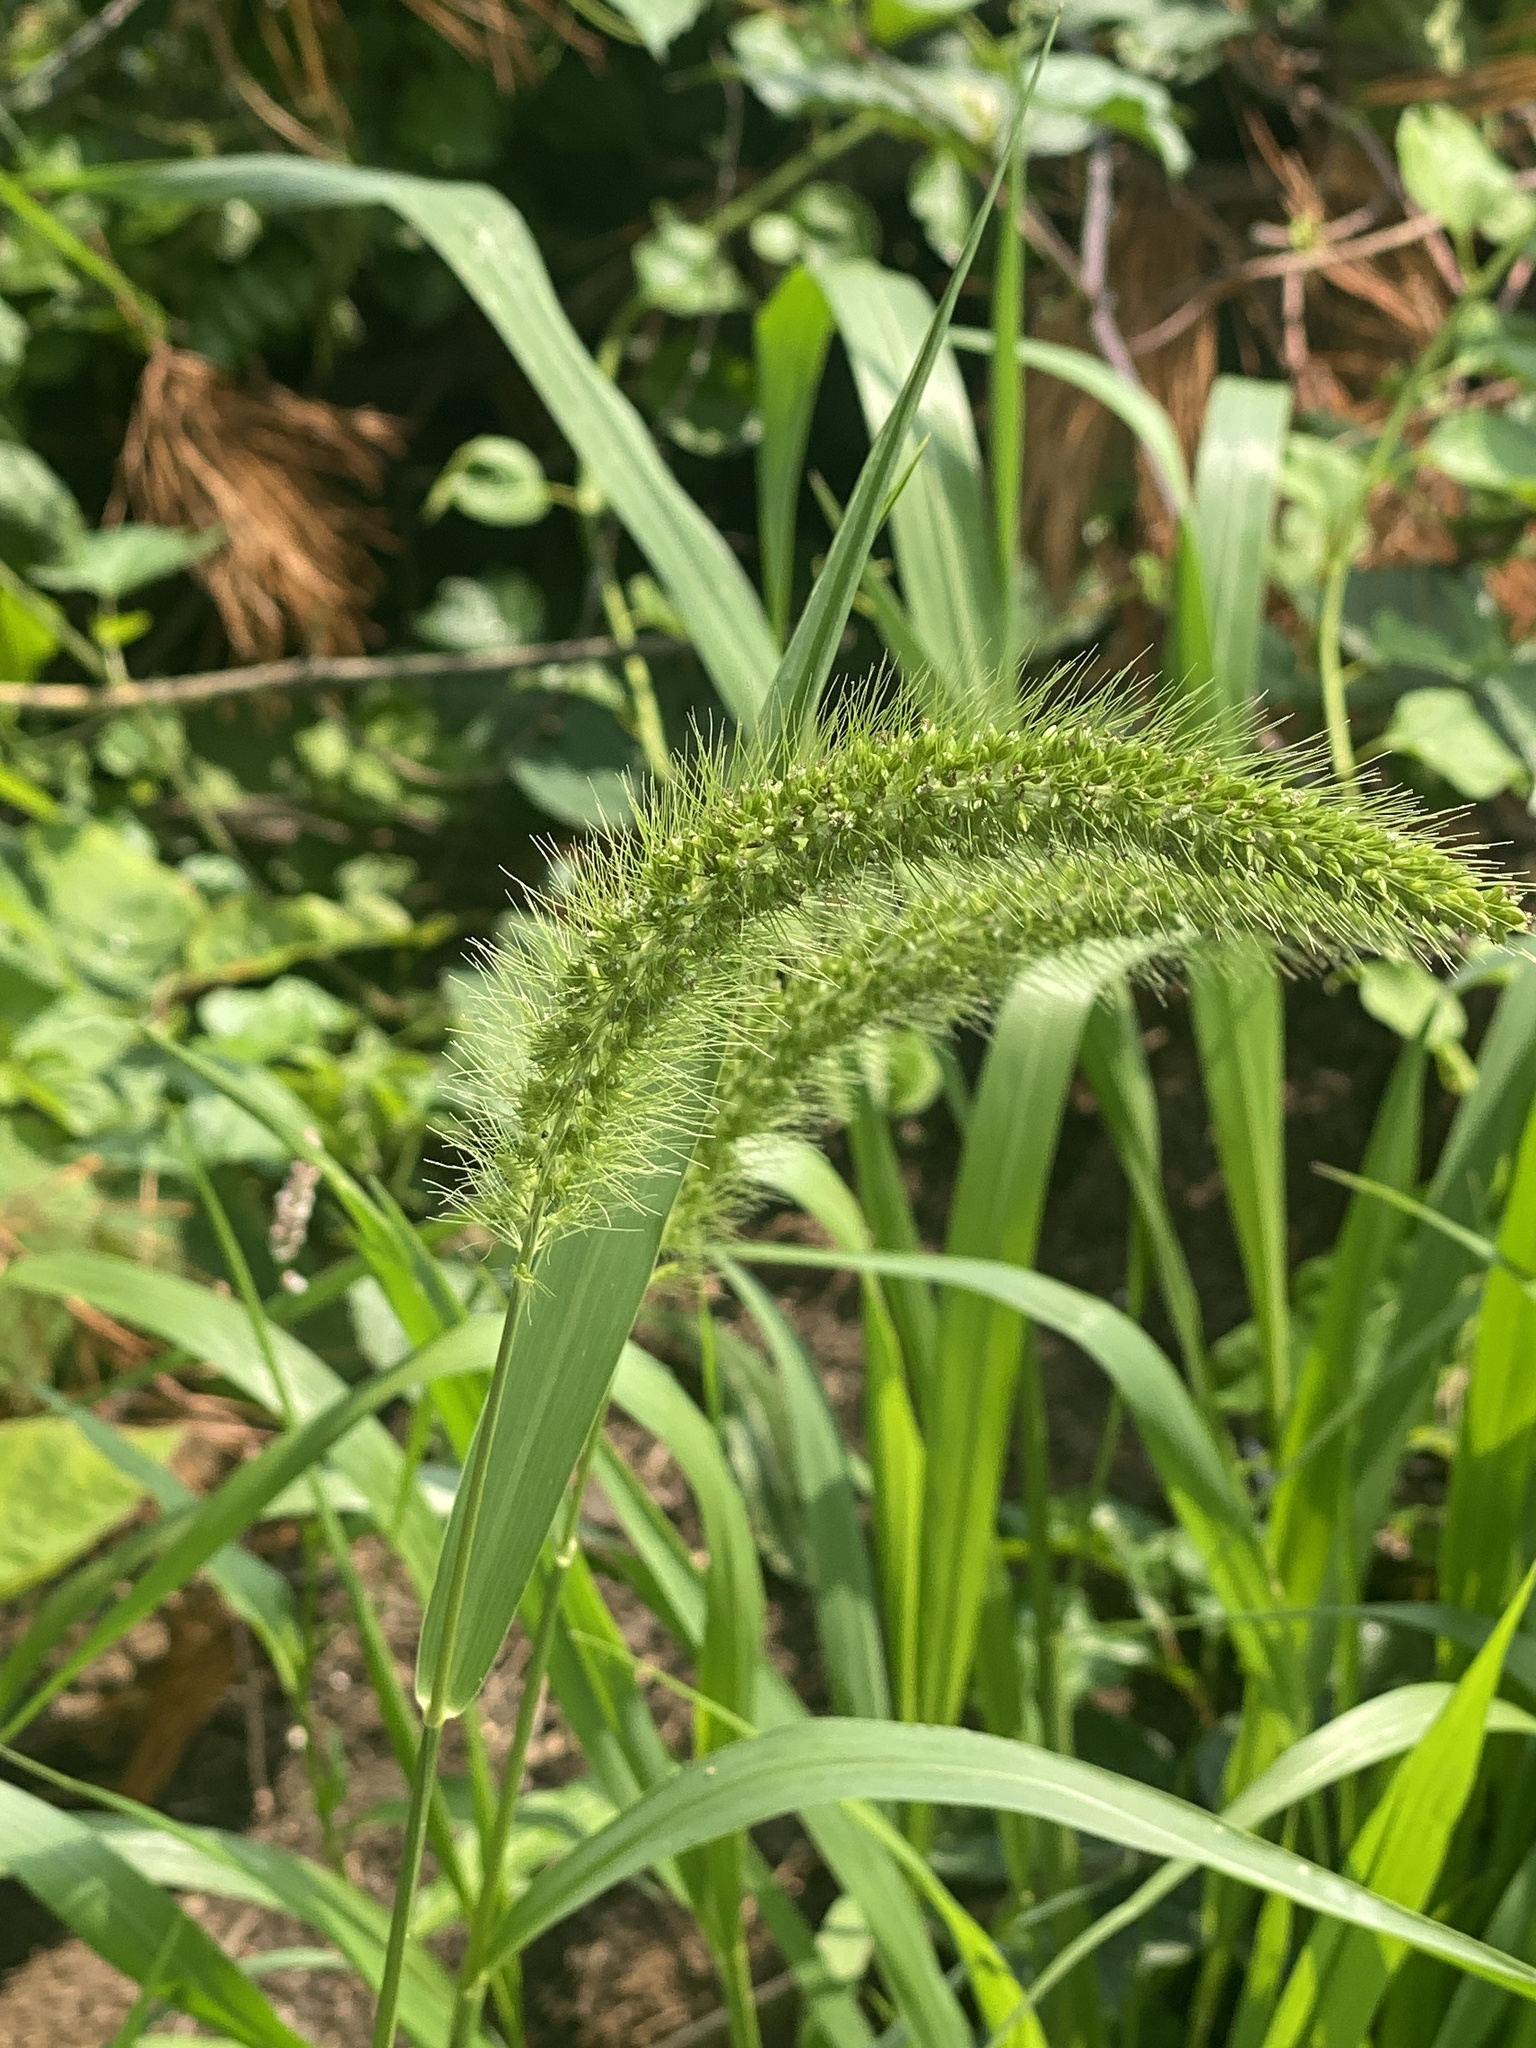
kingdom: Plantae
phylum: Tracheophyta
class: Liliopsida
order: Poales
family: Poaceae
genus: Setaria
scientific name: Setaria faberi
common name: Nodding bristle-grass
